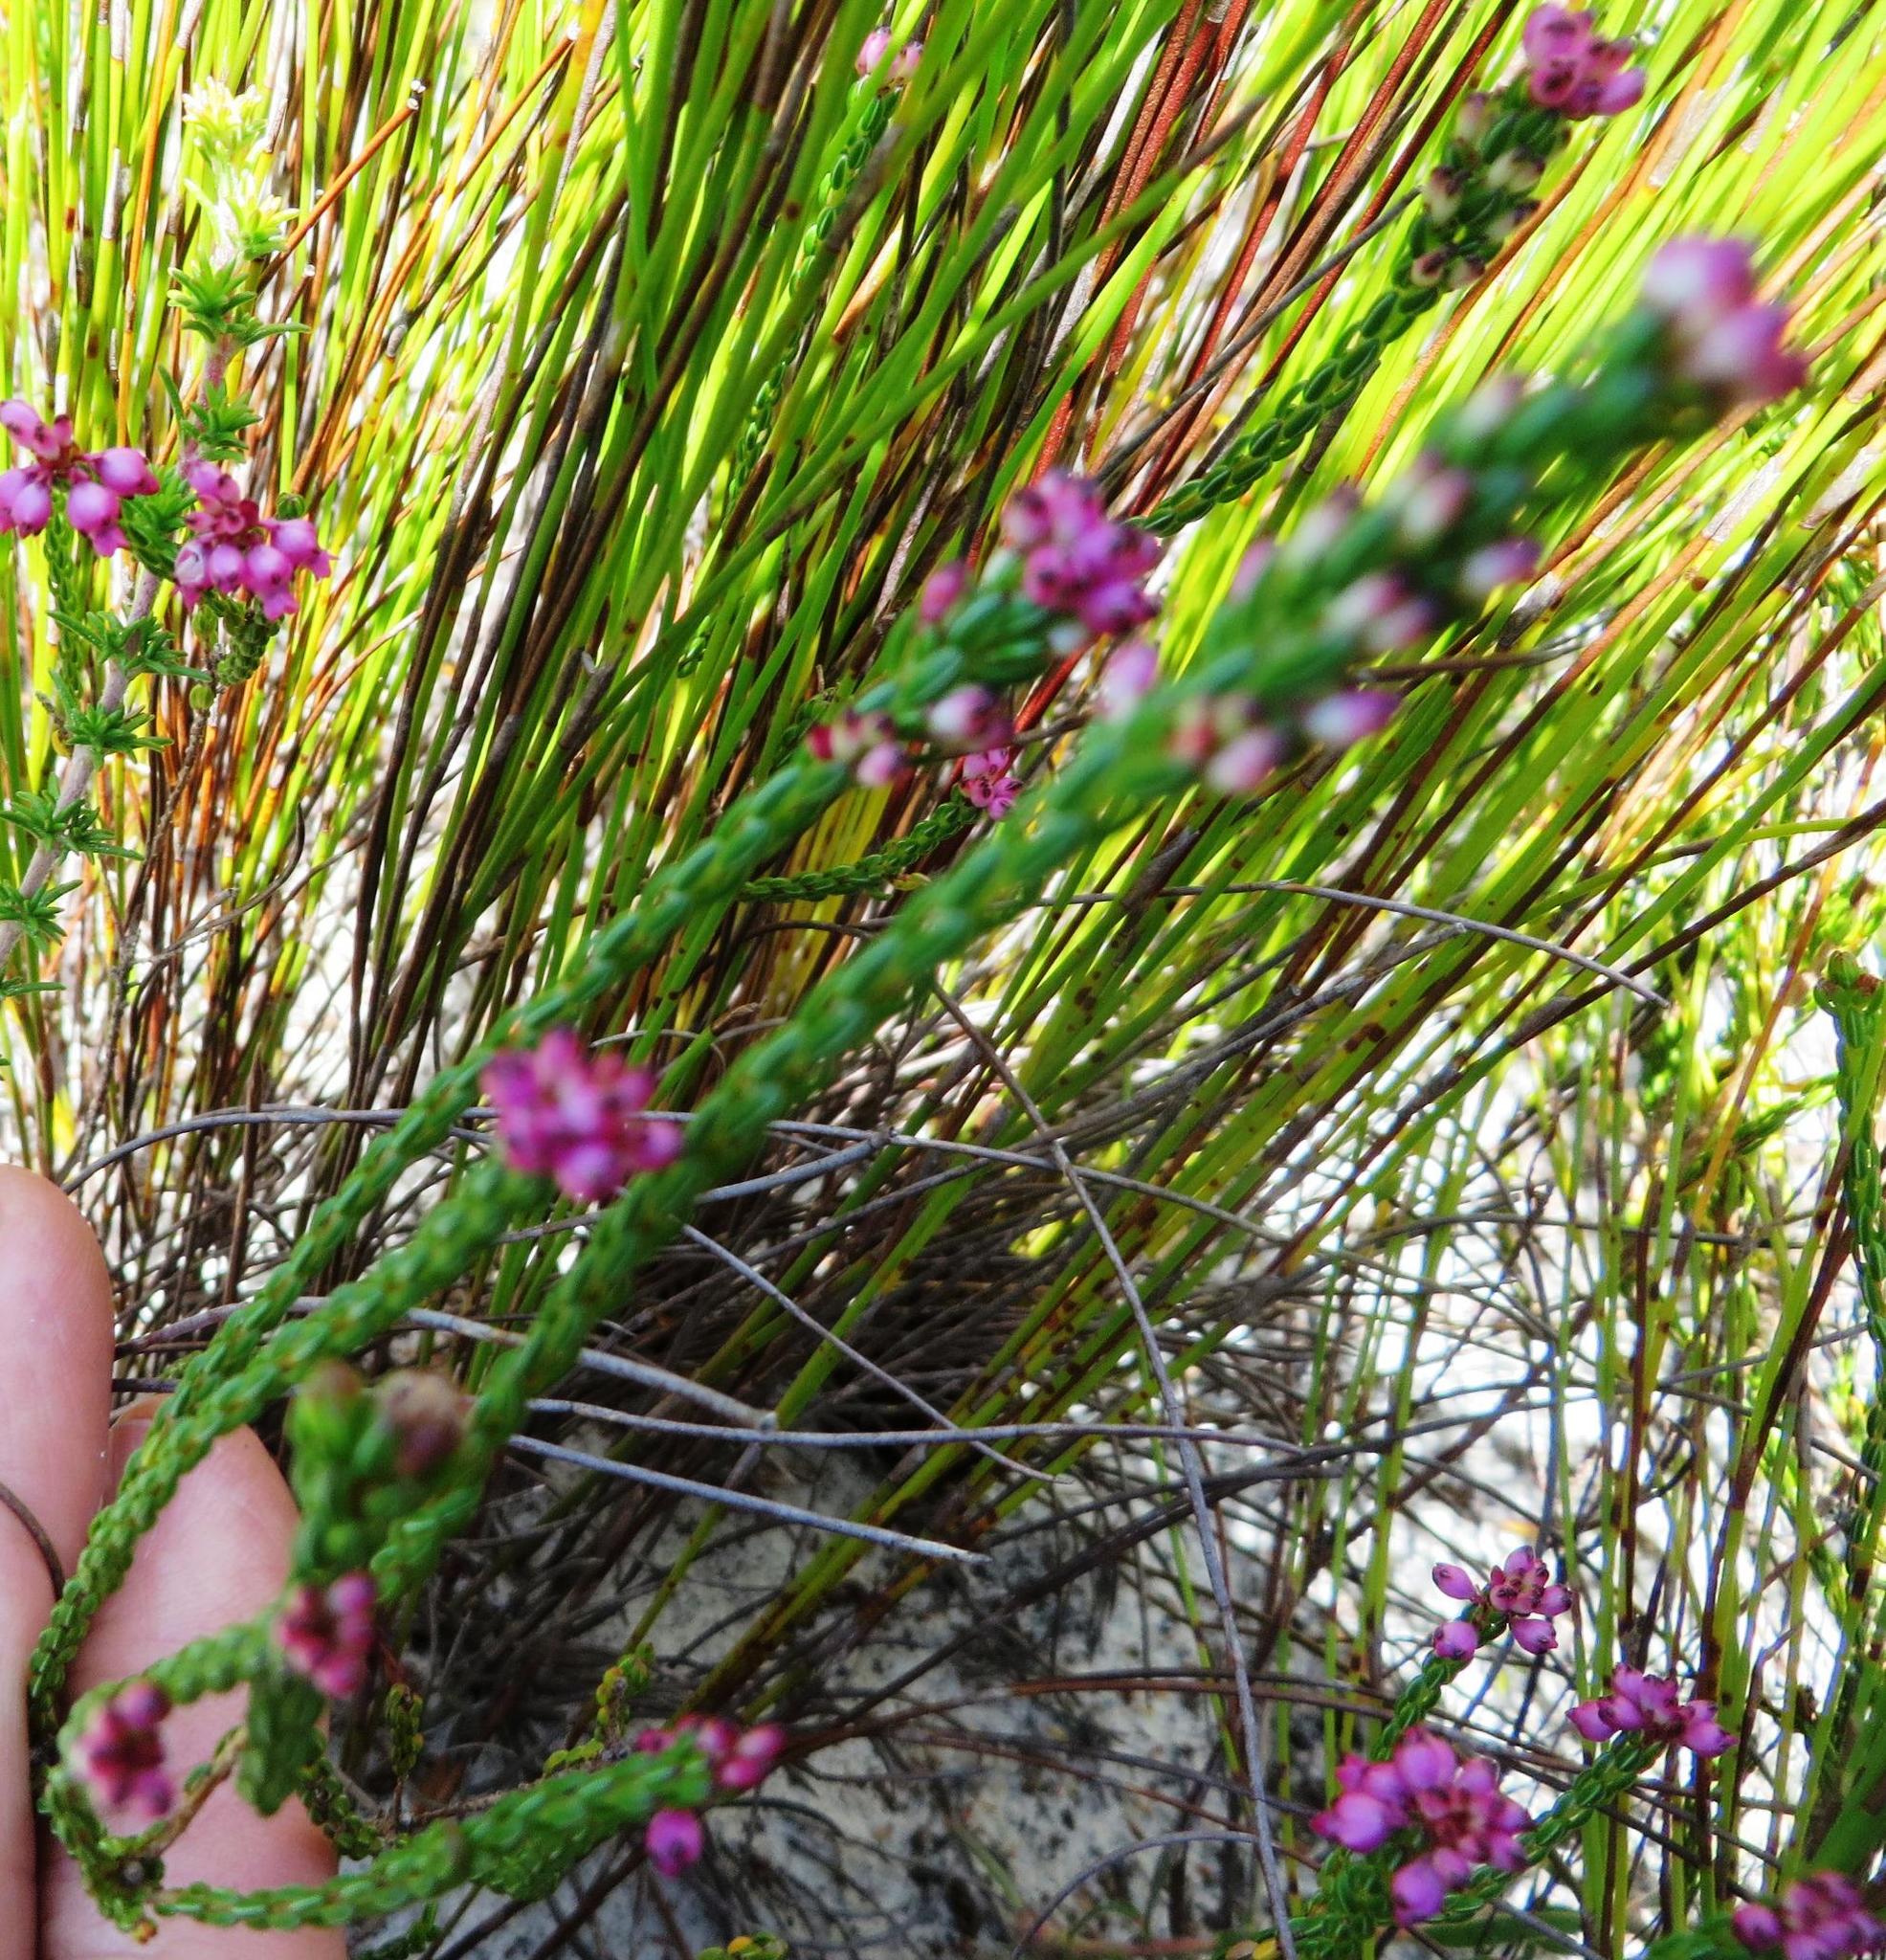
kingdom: Plantae
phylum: Tracheophyta
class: Magnoliopsida
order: Ericales
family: Ericaceae
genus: Erica
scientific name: Erica rhopalantha
